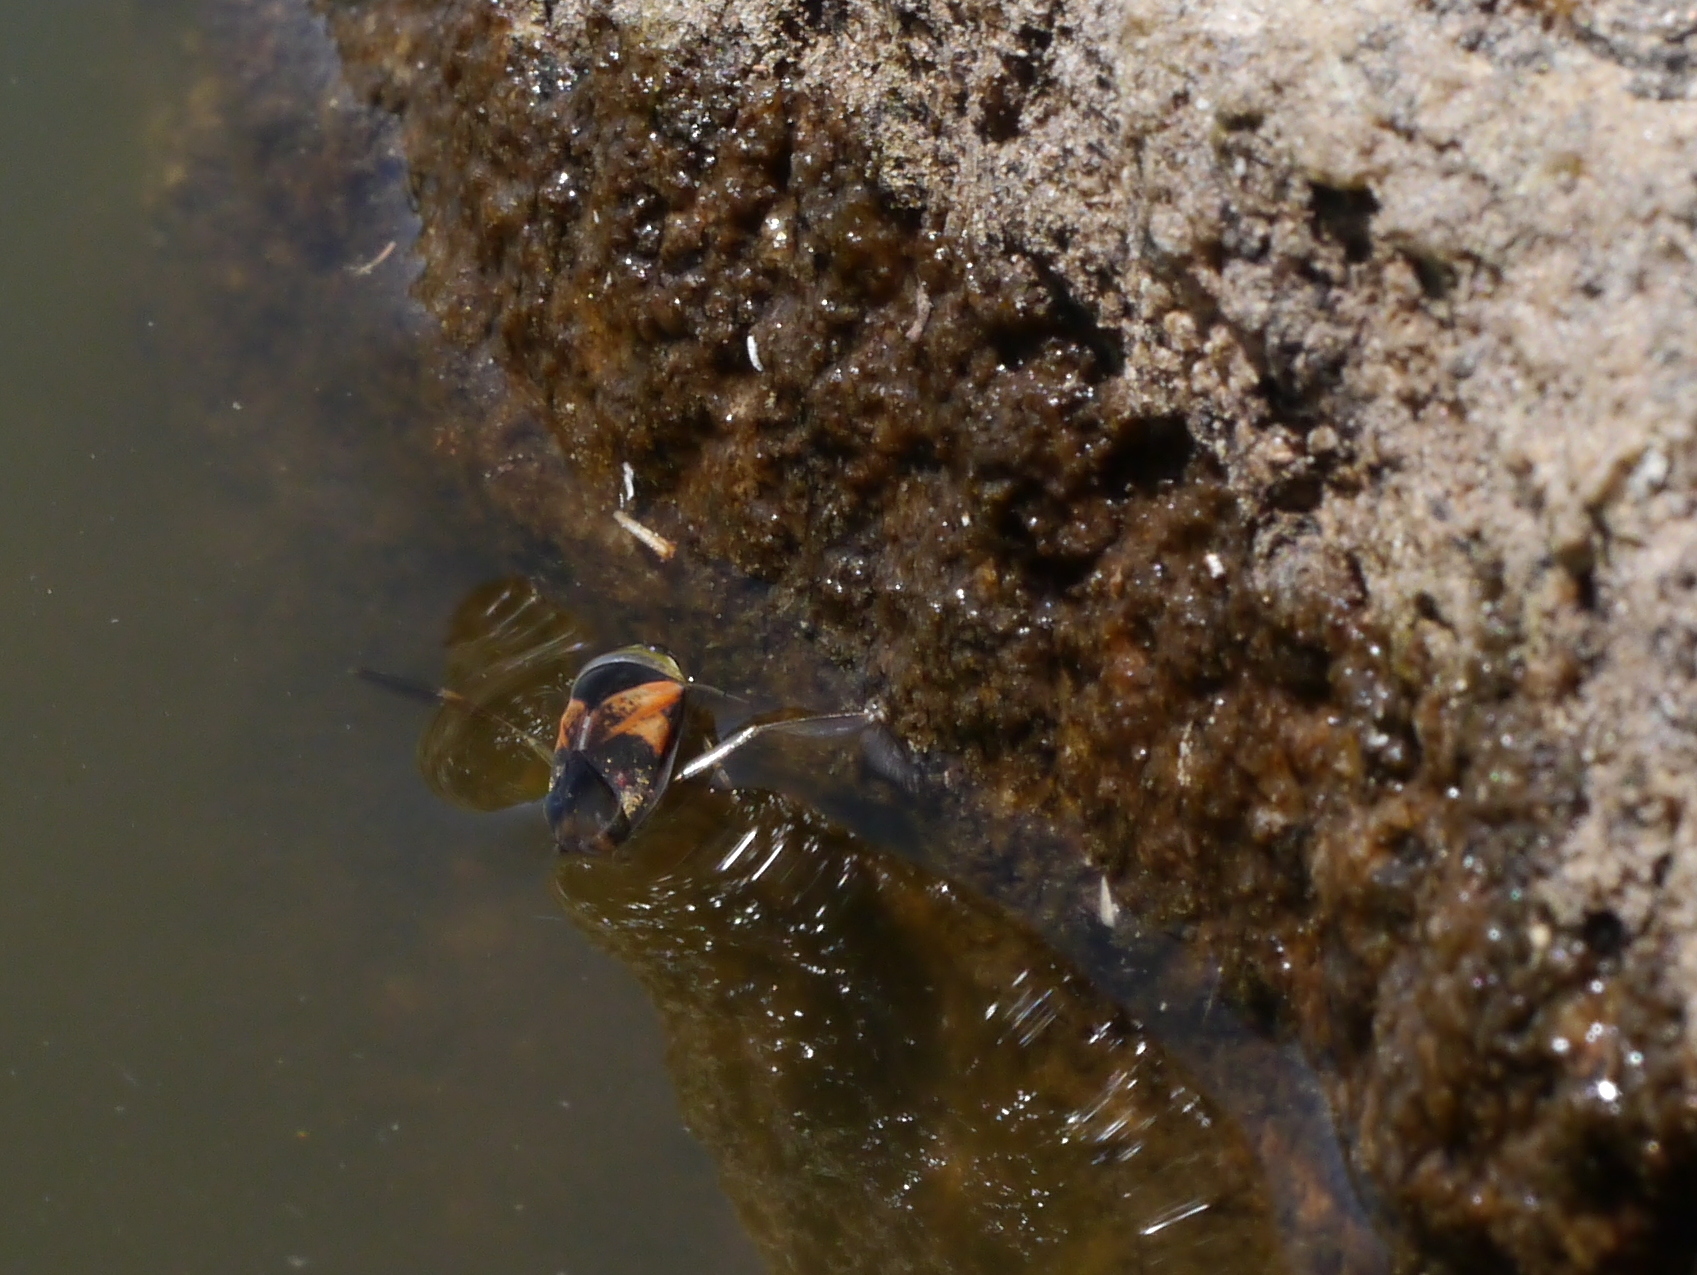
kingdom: Animalia
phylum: Arthropoda
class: Insecta
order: Hemiptera
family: Notonectidae
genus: Notonecta
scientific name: Notonecta kirbyi
